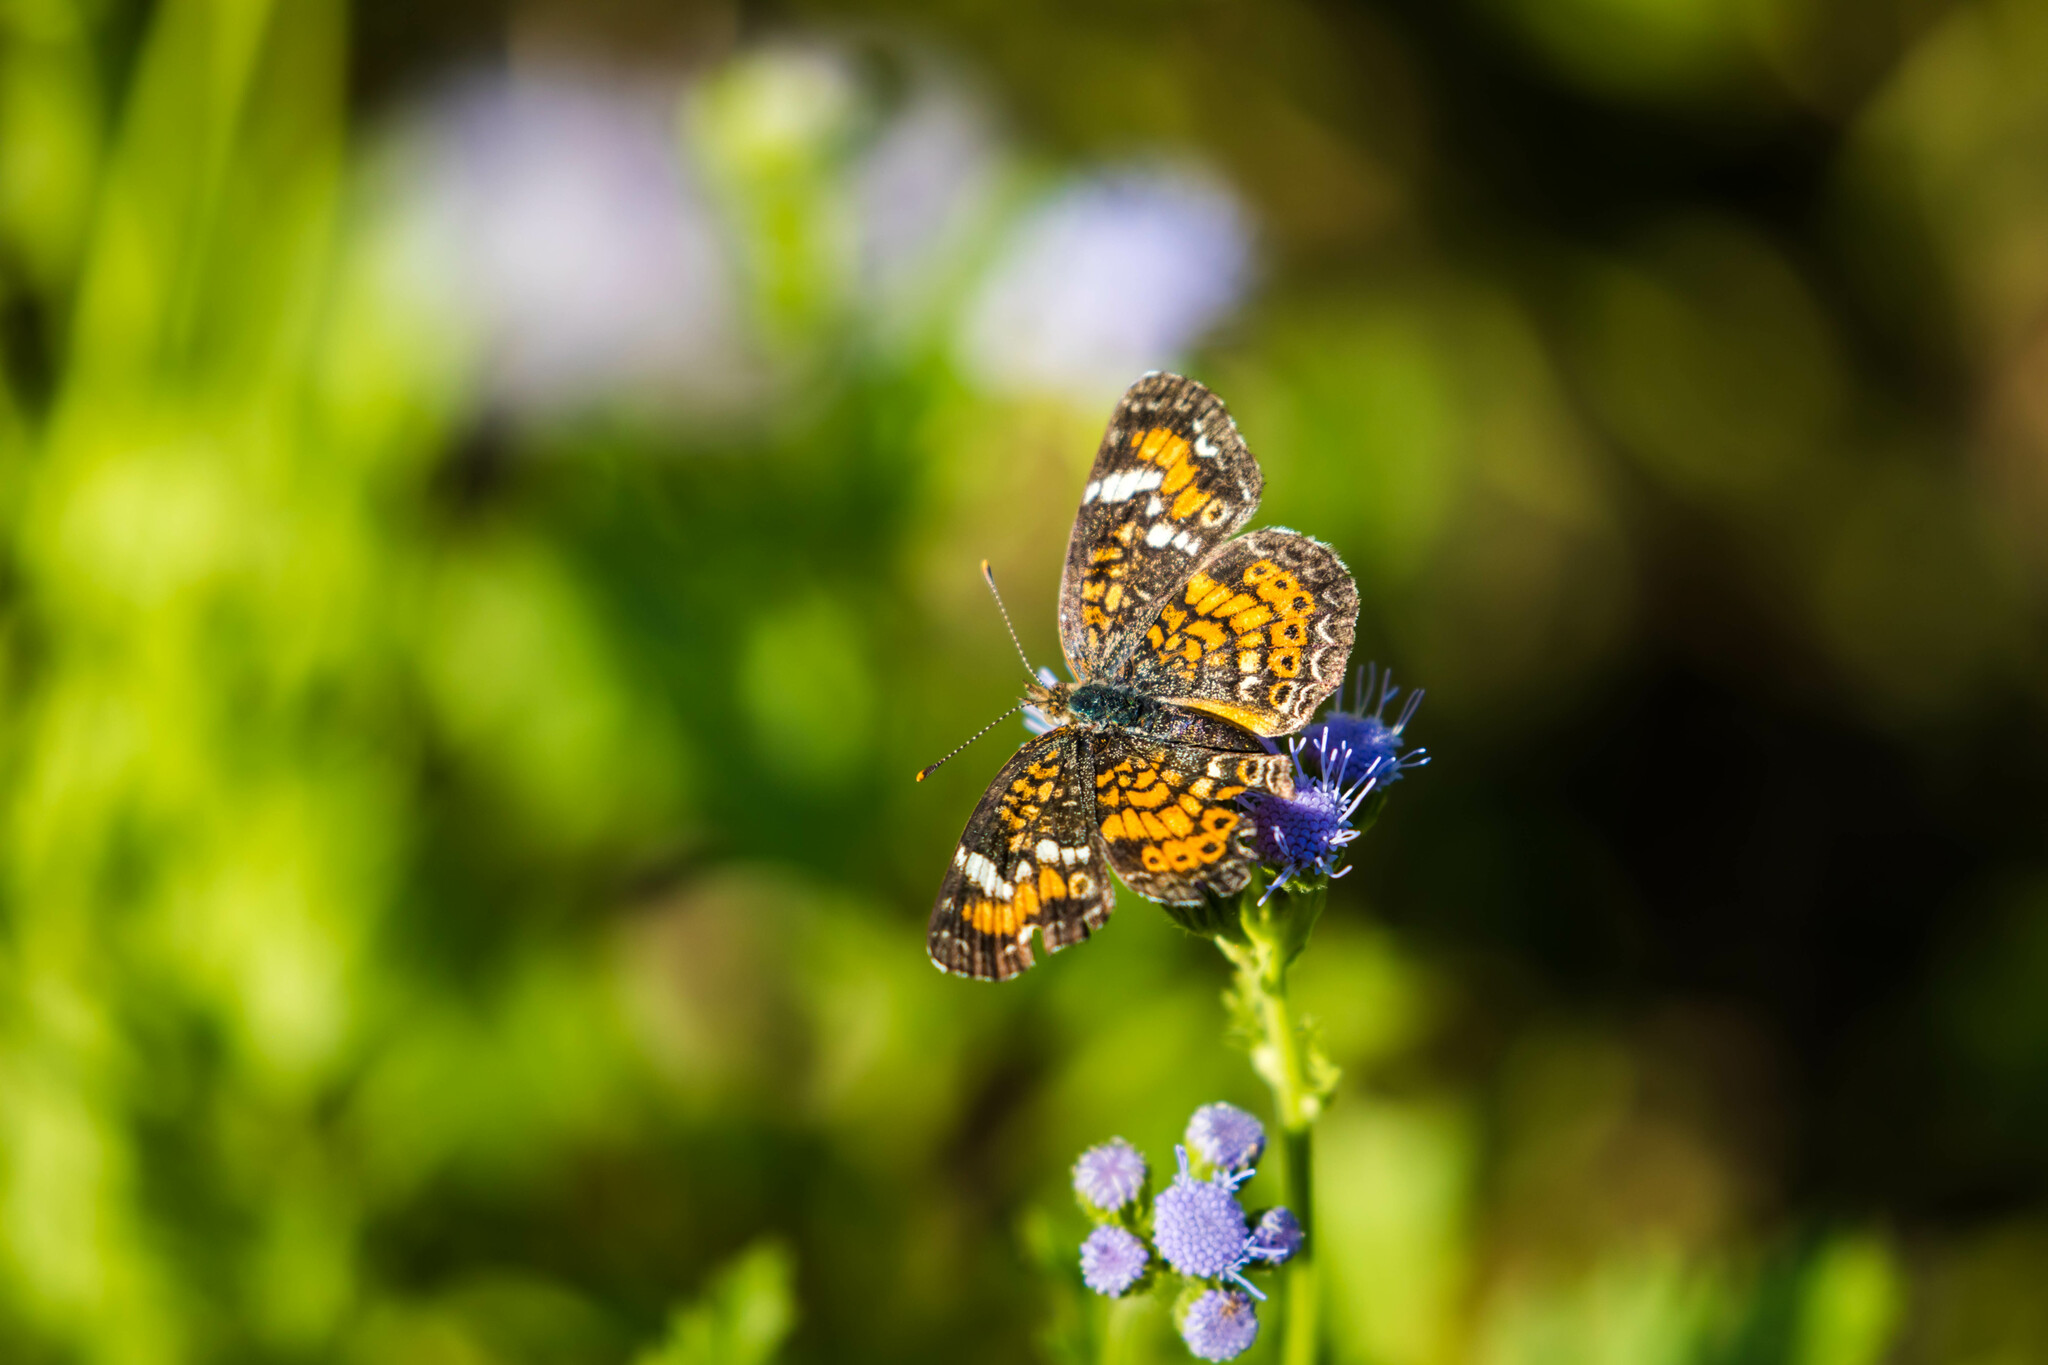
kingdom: Animalia
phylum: Arthropoda
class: Insecta
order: Lepidoptera
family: Nymphalidae
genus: Phyciodes
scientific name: Phyciodes phaon
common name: Phaon crescent
